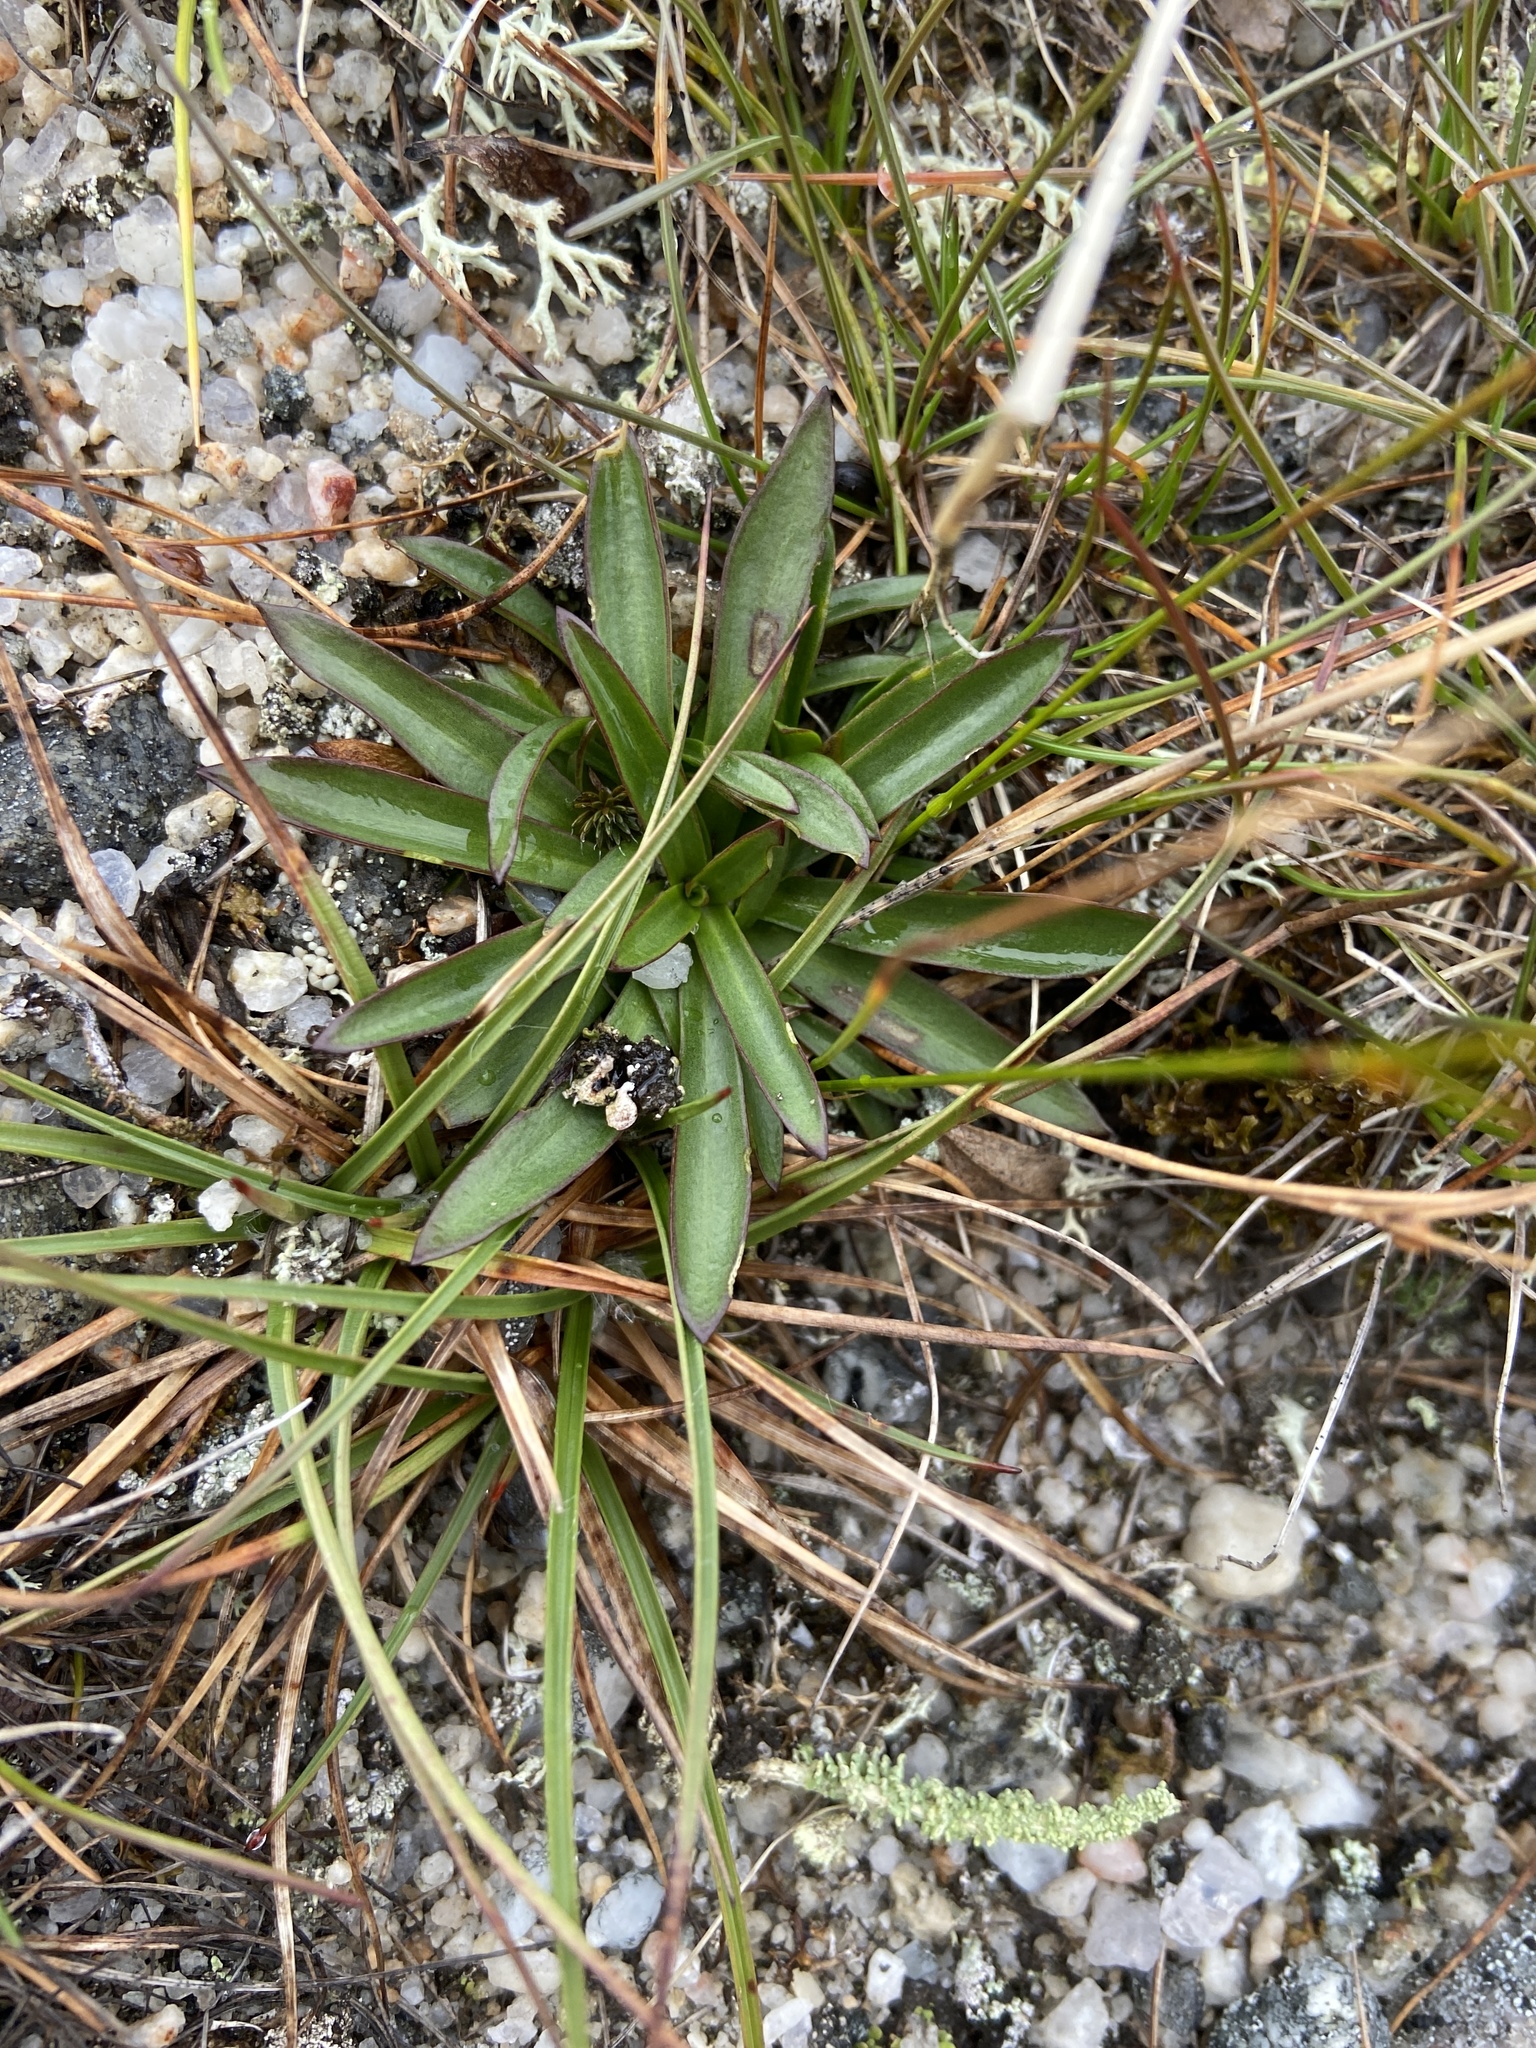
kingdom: Plantae
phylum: Tracheophyta
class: Magnoliopsida
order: Caryophyllales
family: Caryophyllaceae
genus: Viscaria
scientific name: Viscaria alpina
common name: Alpine campion
